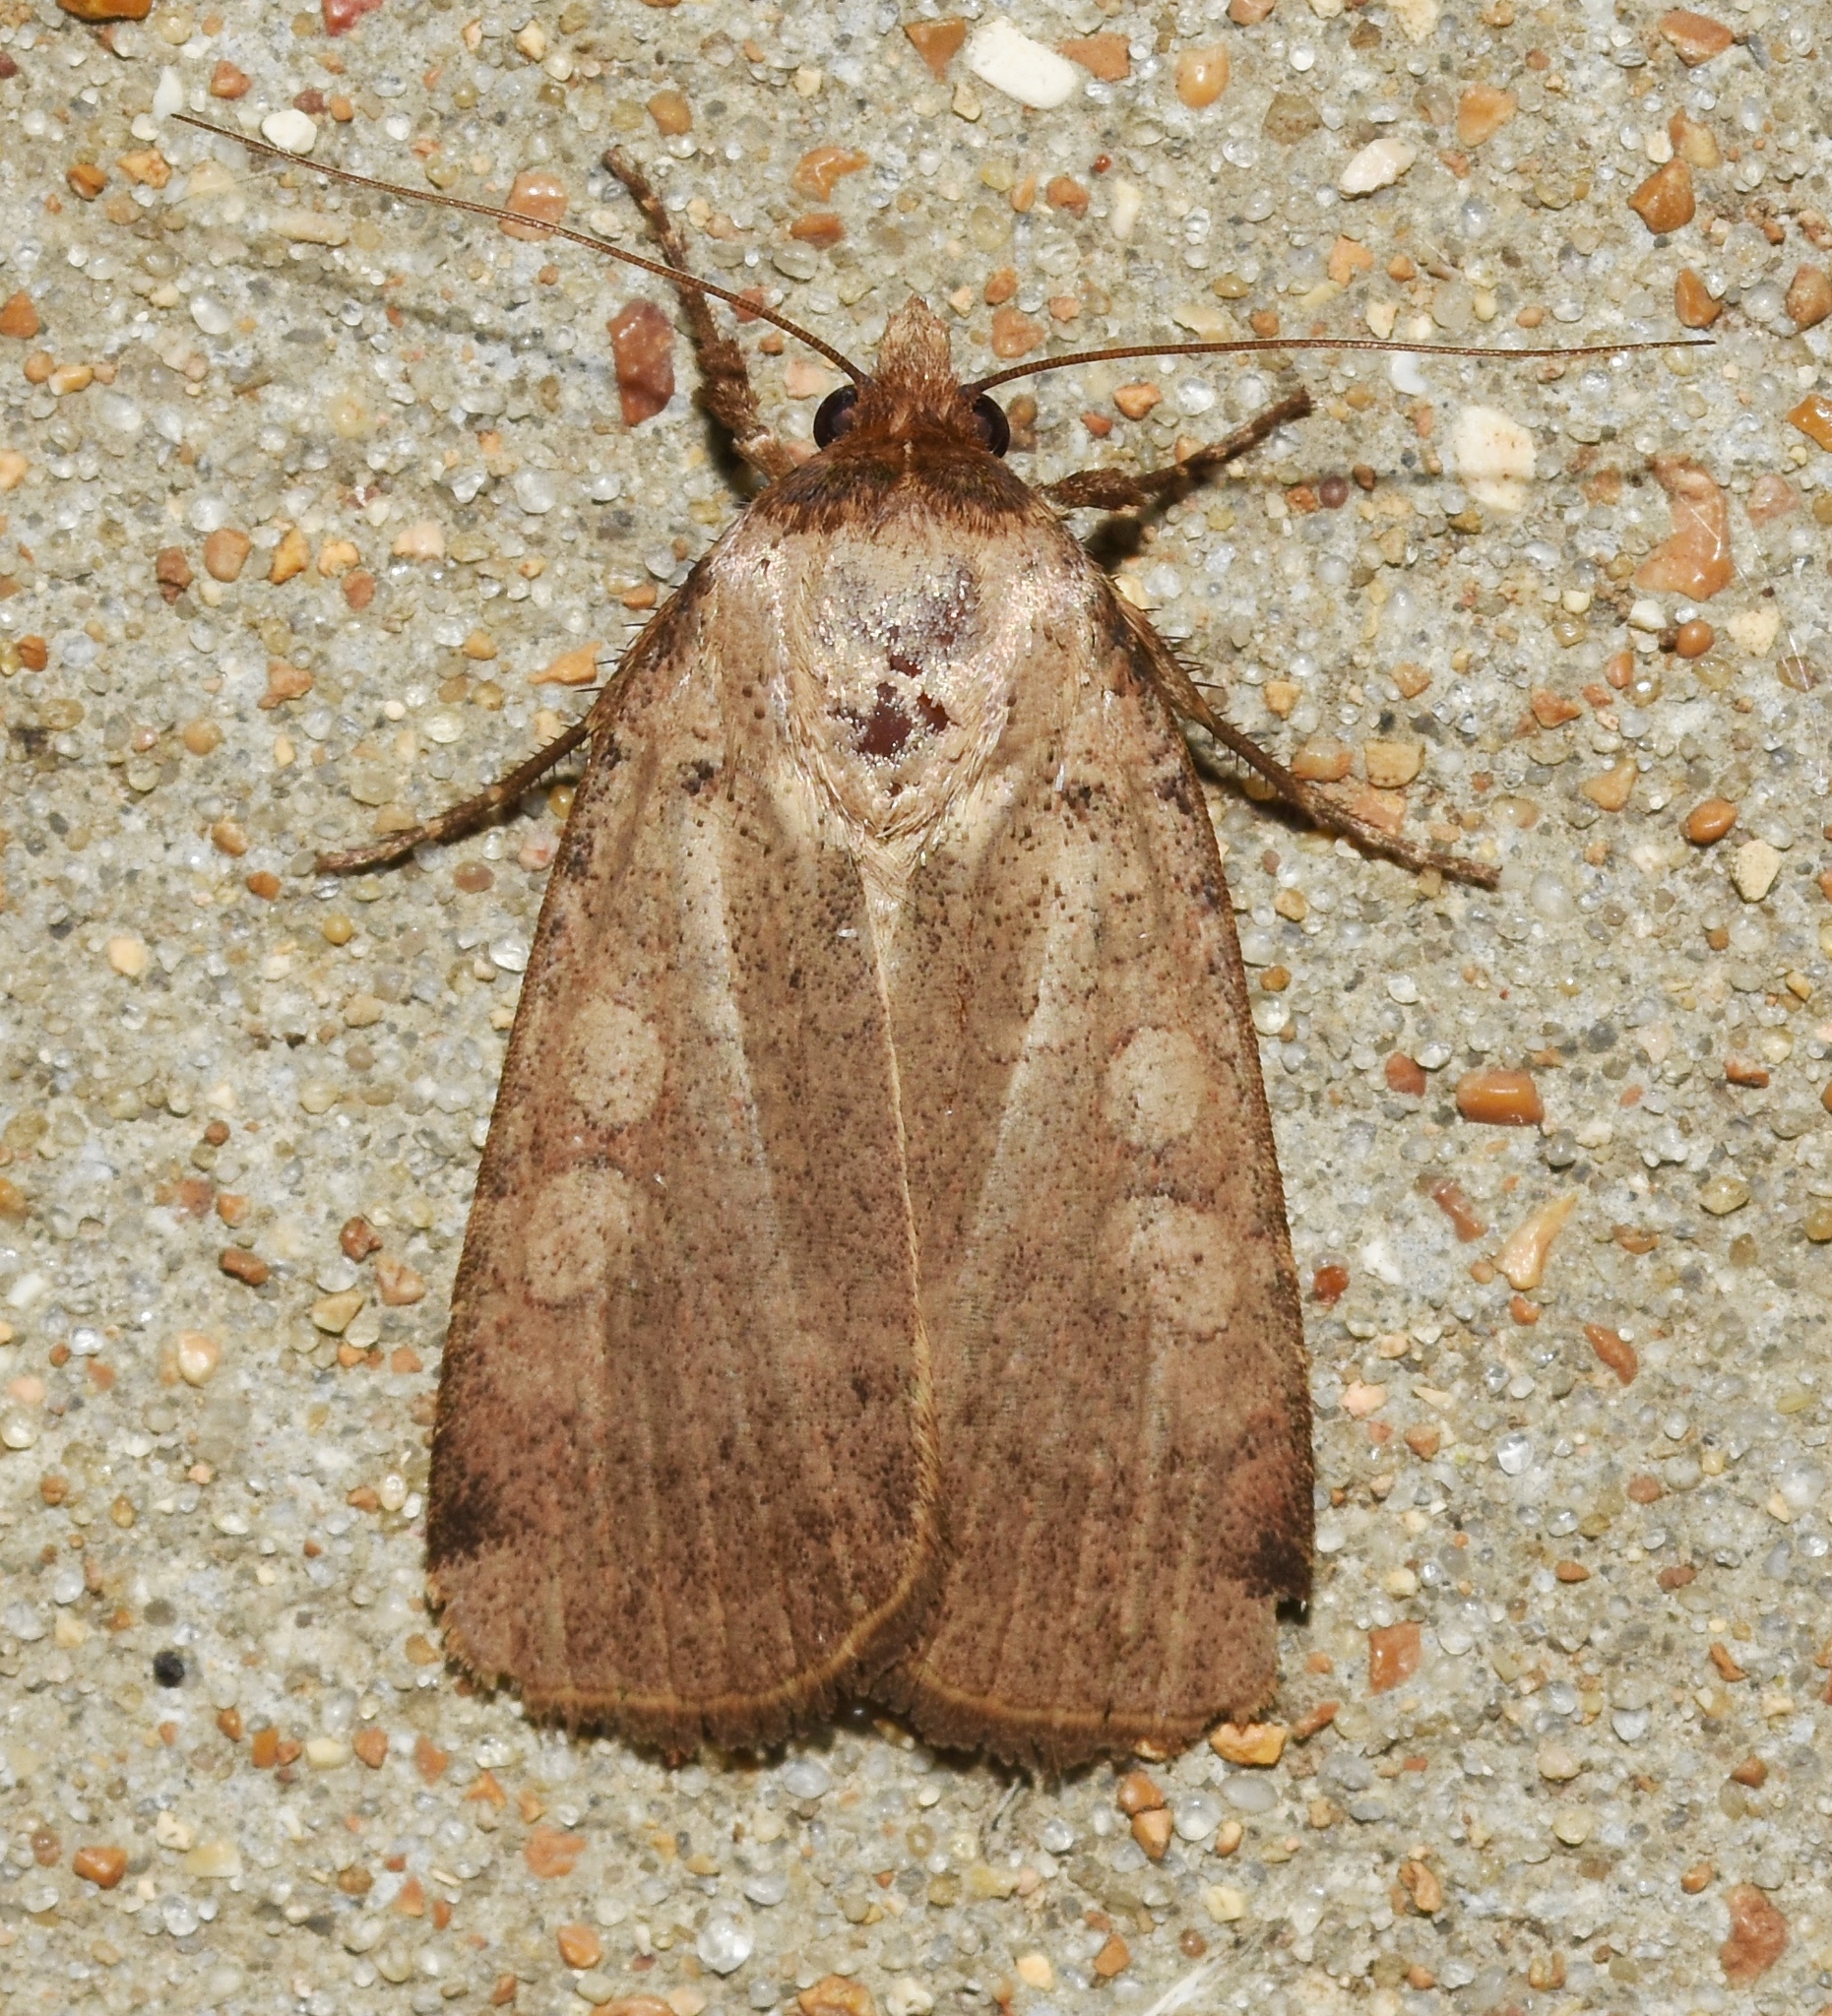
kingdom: Animalia
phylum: Arthropoda
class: Insecta
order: Lepidoptera
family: Noctuidae
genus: Protolampra
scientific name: Protolampra brunneicollis
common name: Brown-collared dart
